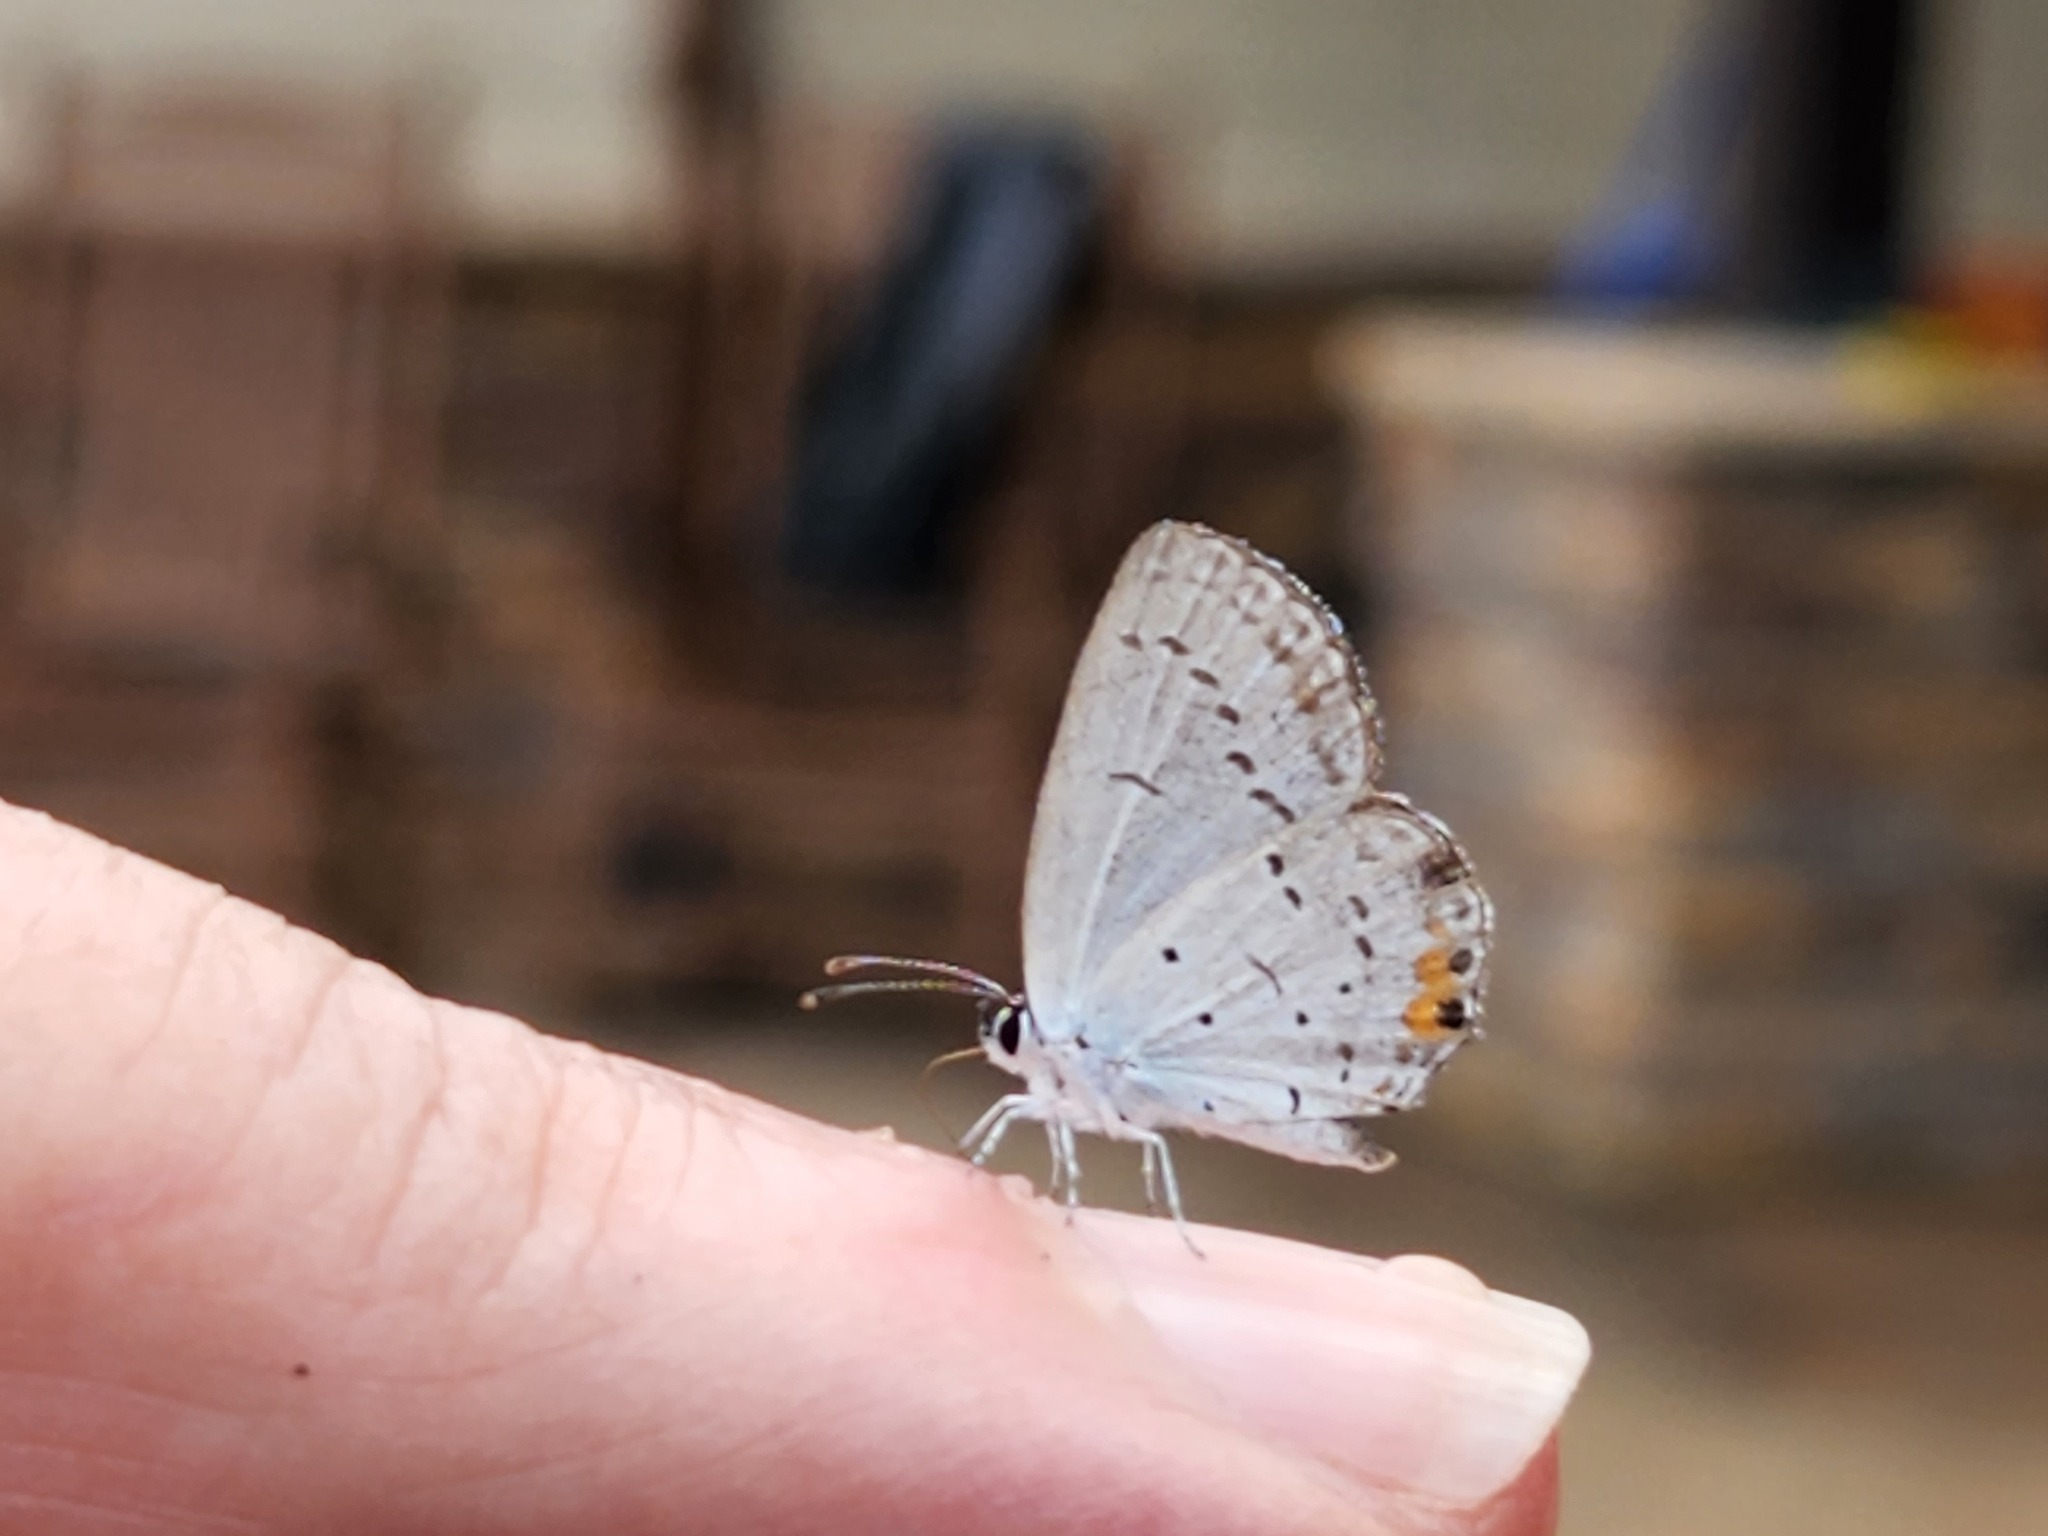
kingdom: Animalia
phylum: Arthropoda
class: Insecta
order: Lepidoptera
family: Lycaenidae
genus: Elkalyce
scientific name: Elkalyce comyntas
